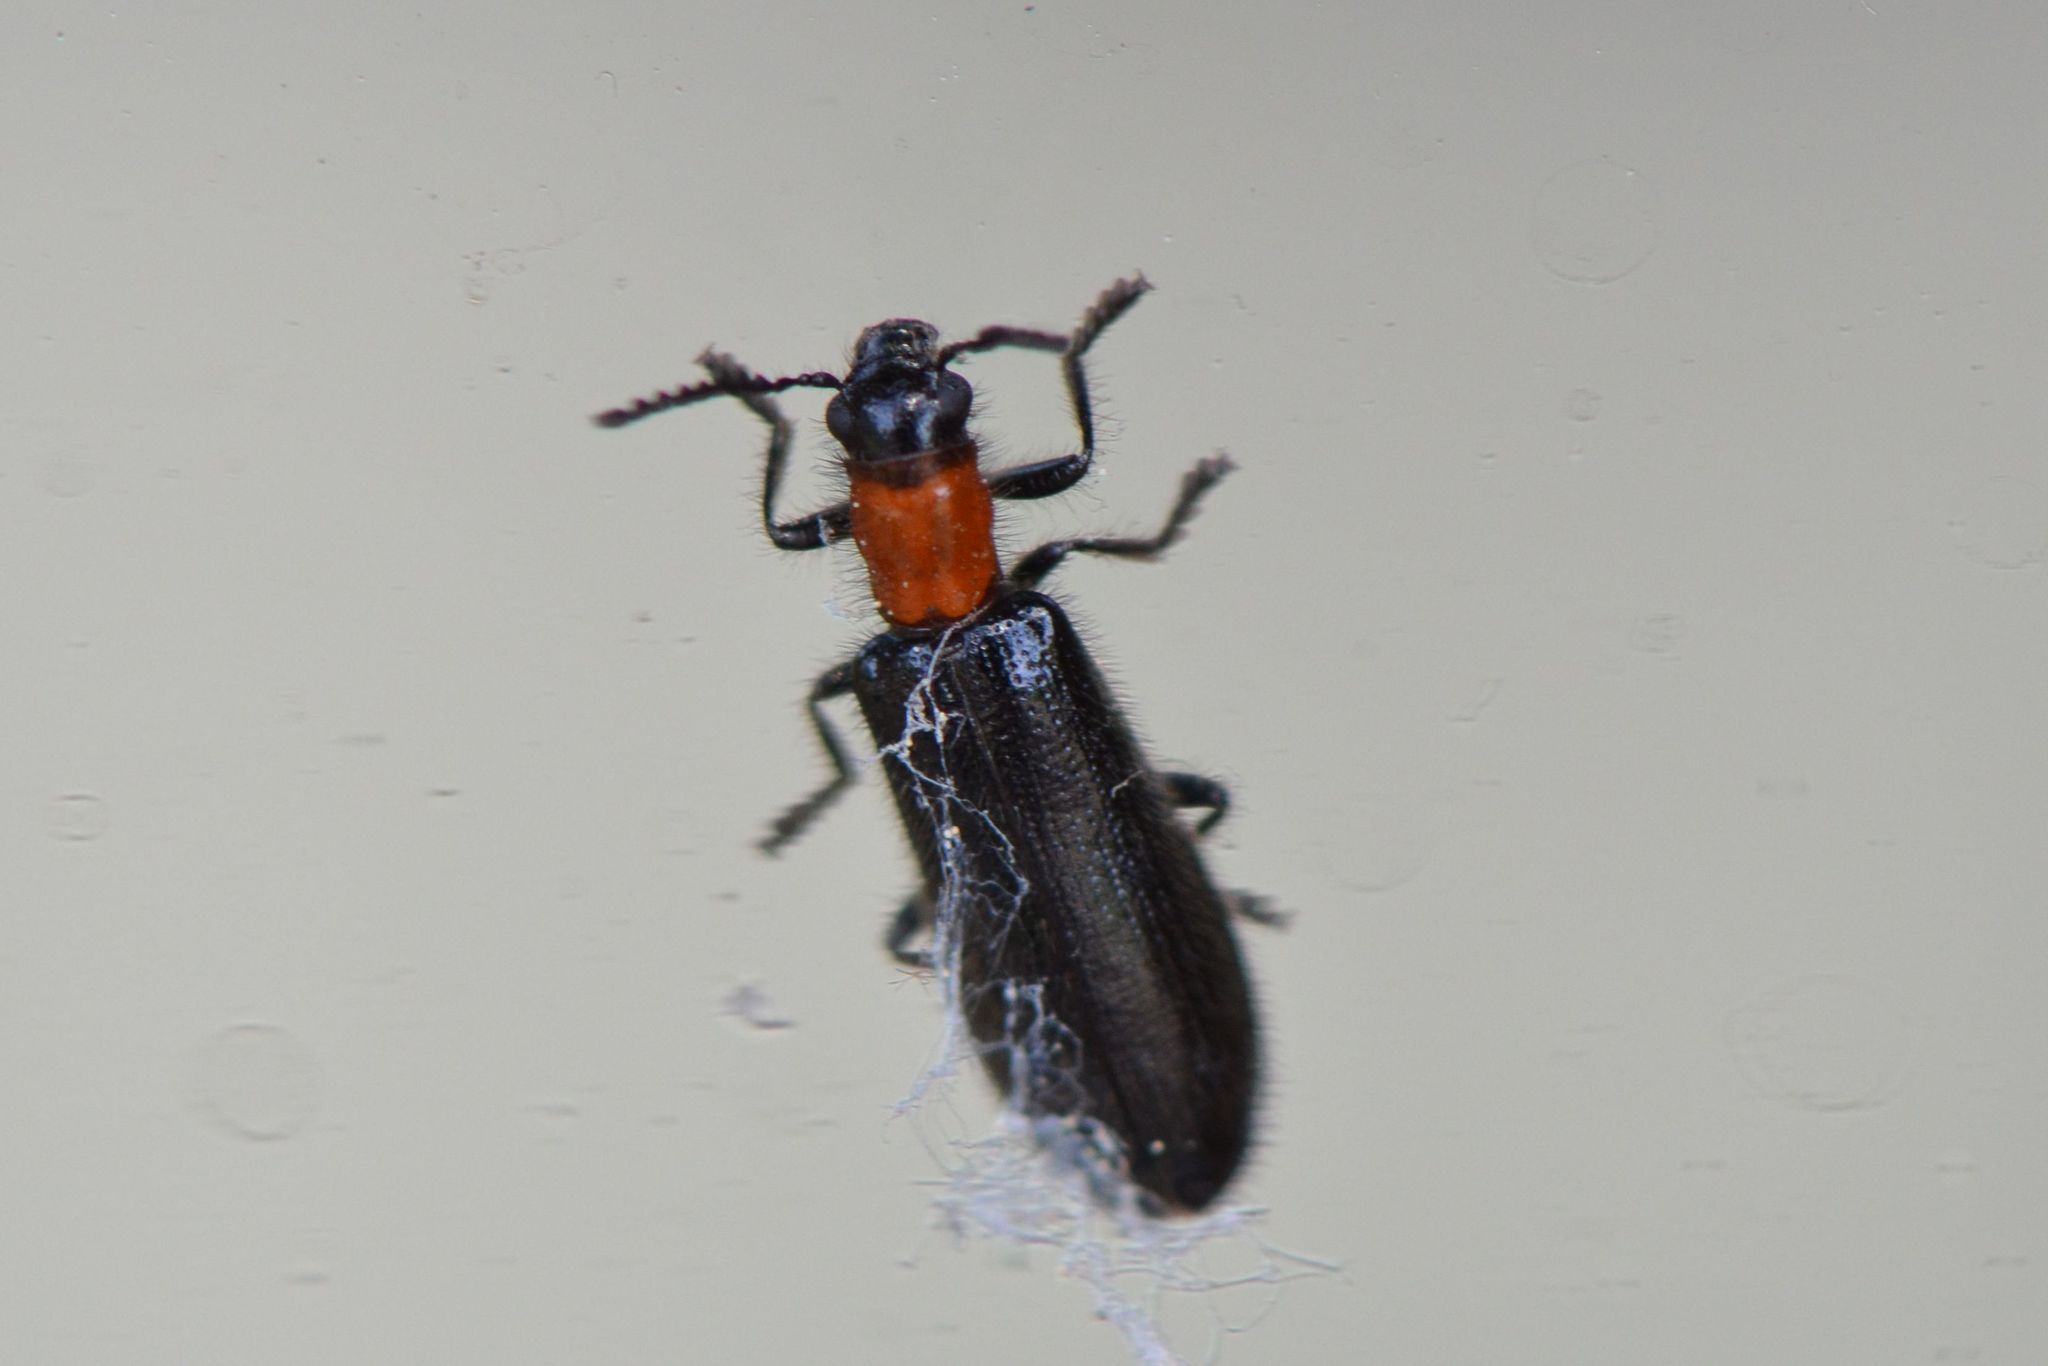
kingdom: Animalia
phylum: Arthropoda
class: Insecta
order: Coleoptera
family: Cleridae
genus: Tillus
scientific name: Tillus elongatus
